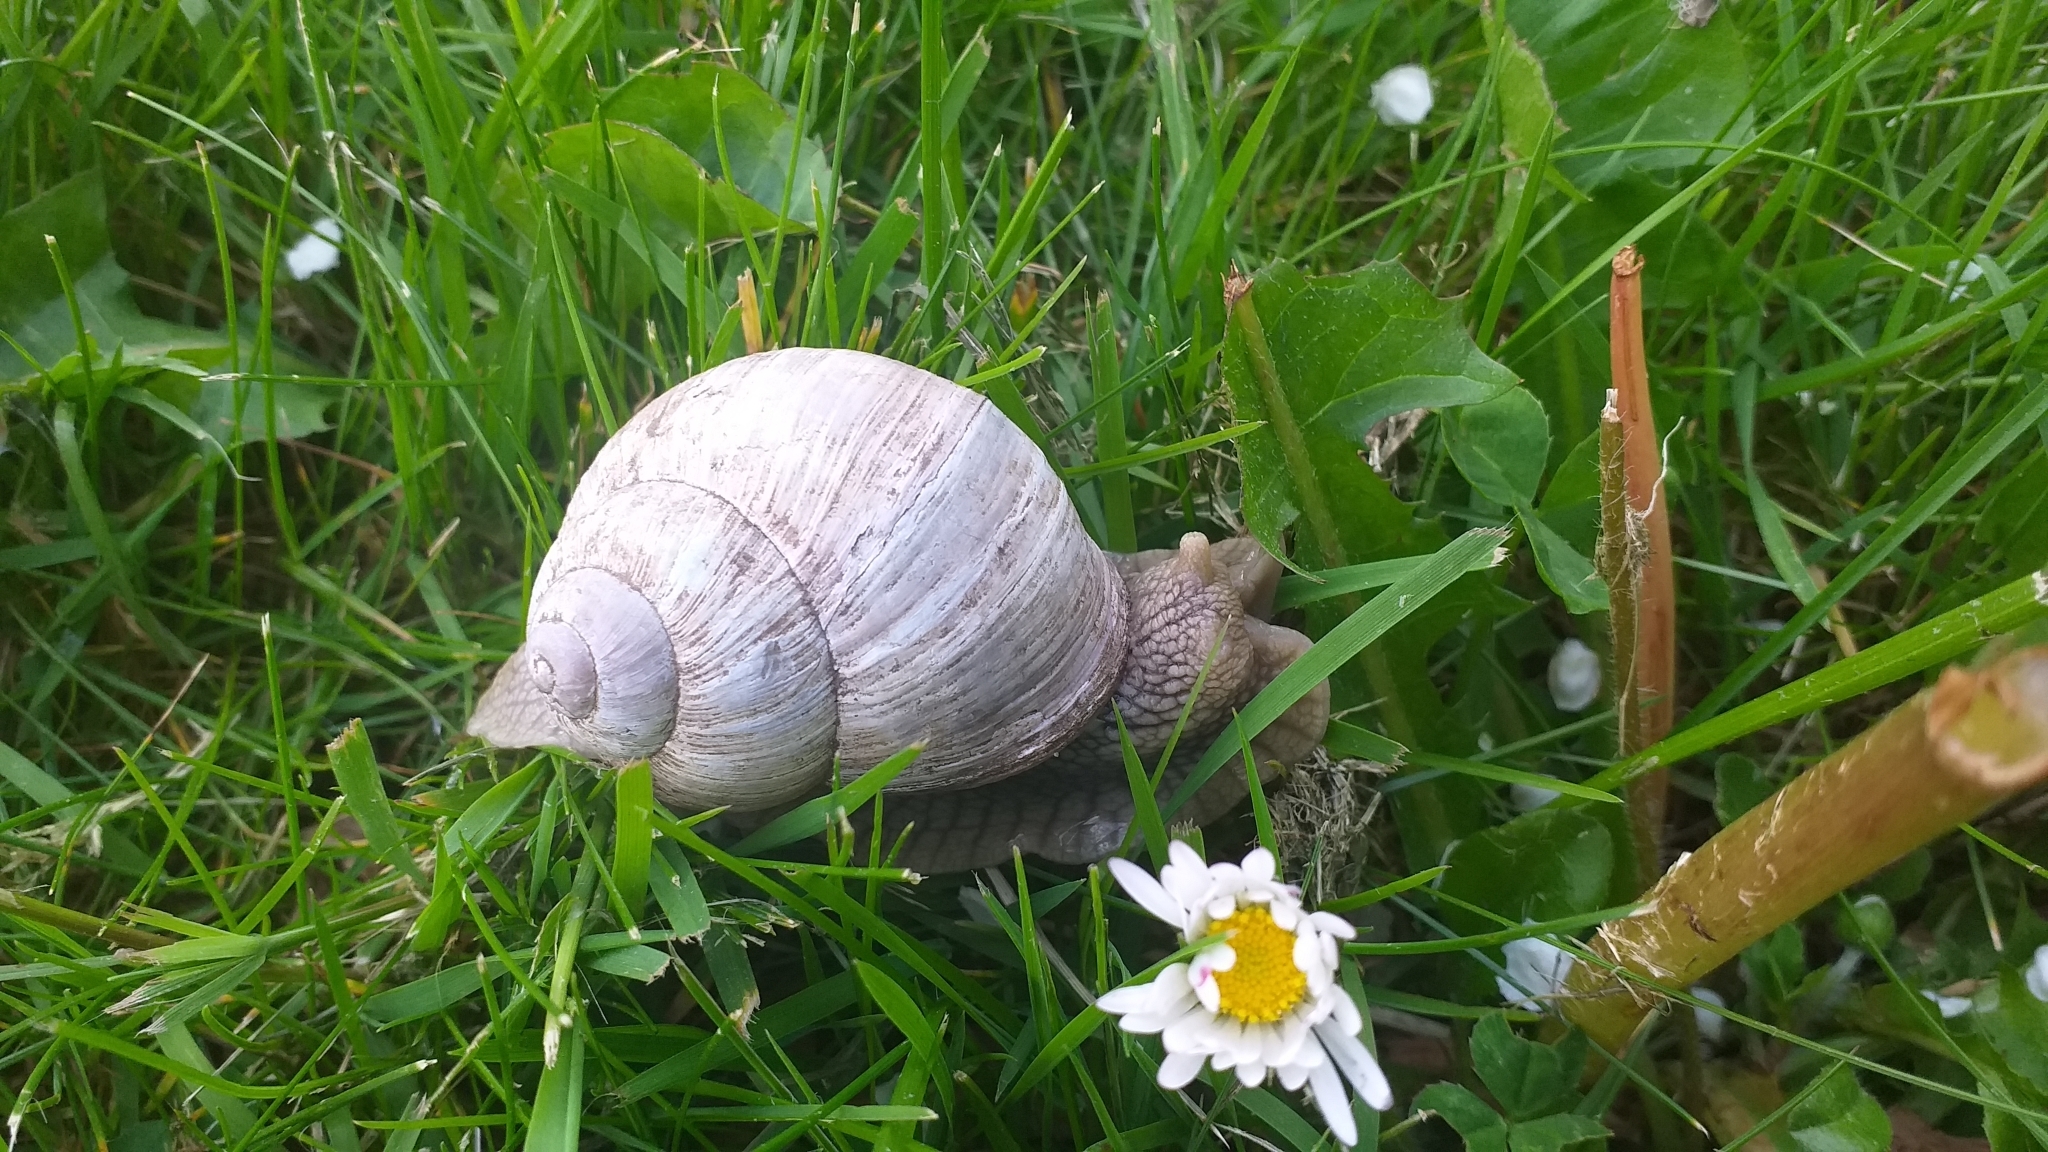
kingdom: Animalia
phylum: Mollusca
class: Gastropoda
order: Stylommatophora
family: Helicidae
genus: Helix
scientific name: Helix pomatia
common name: Roman snail
